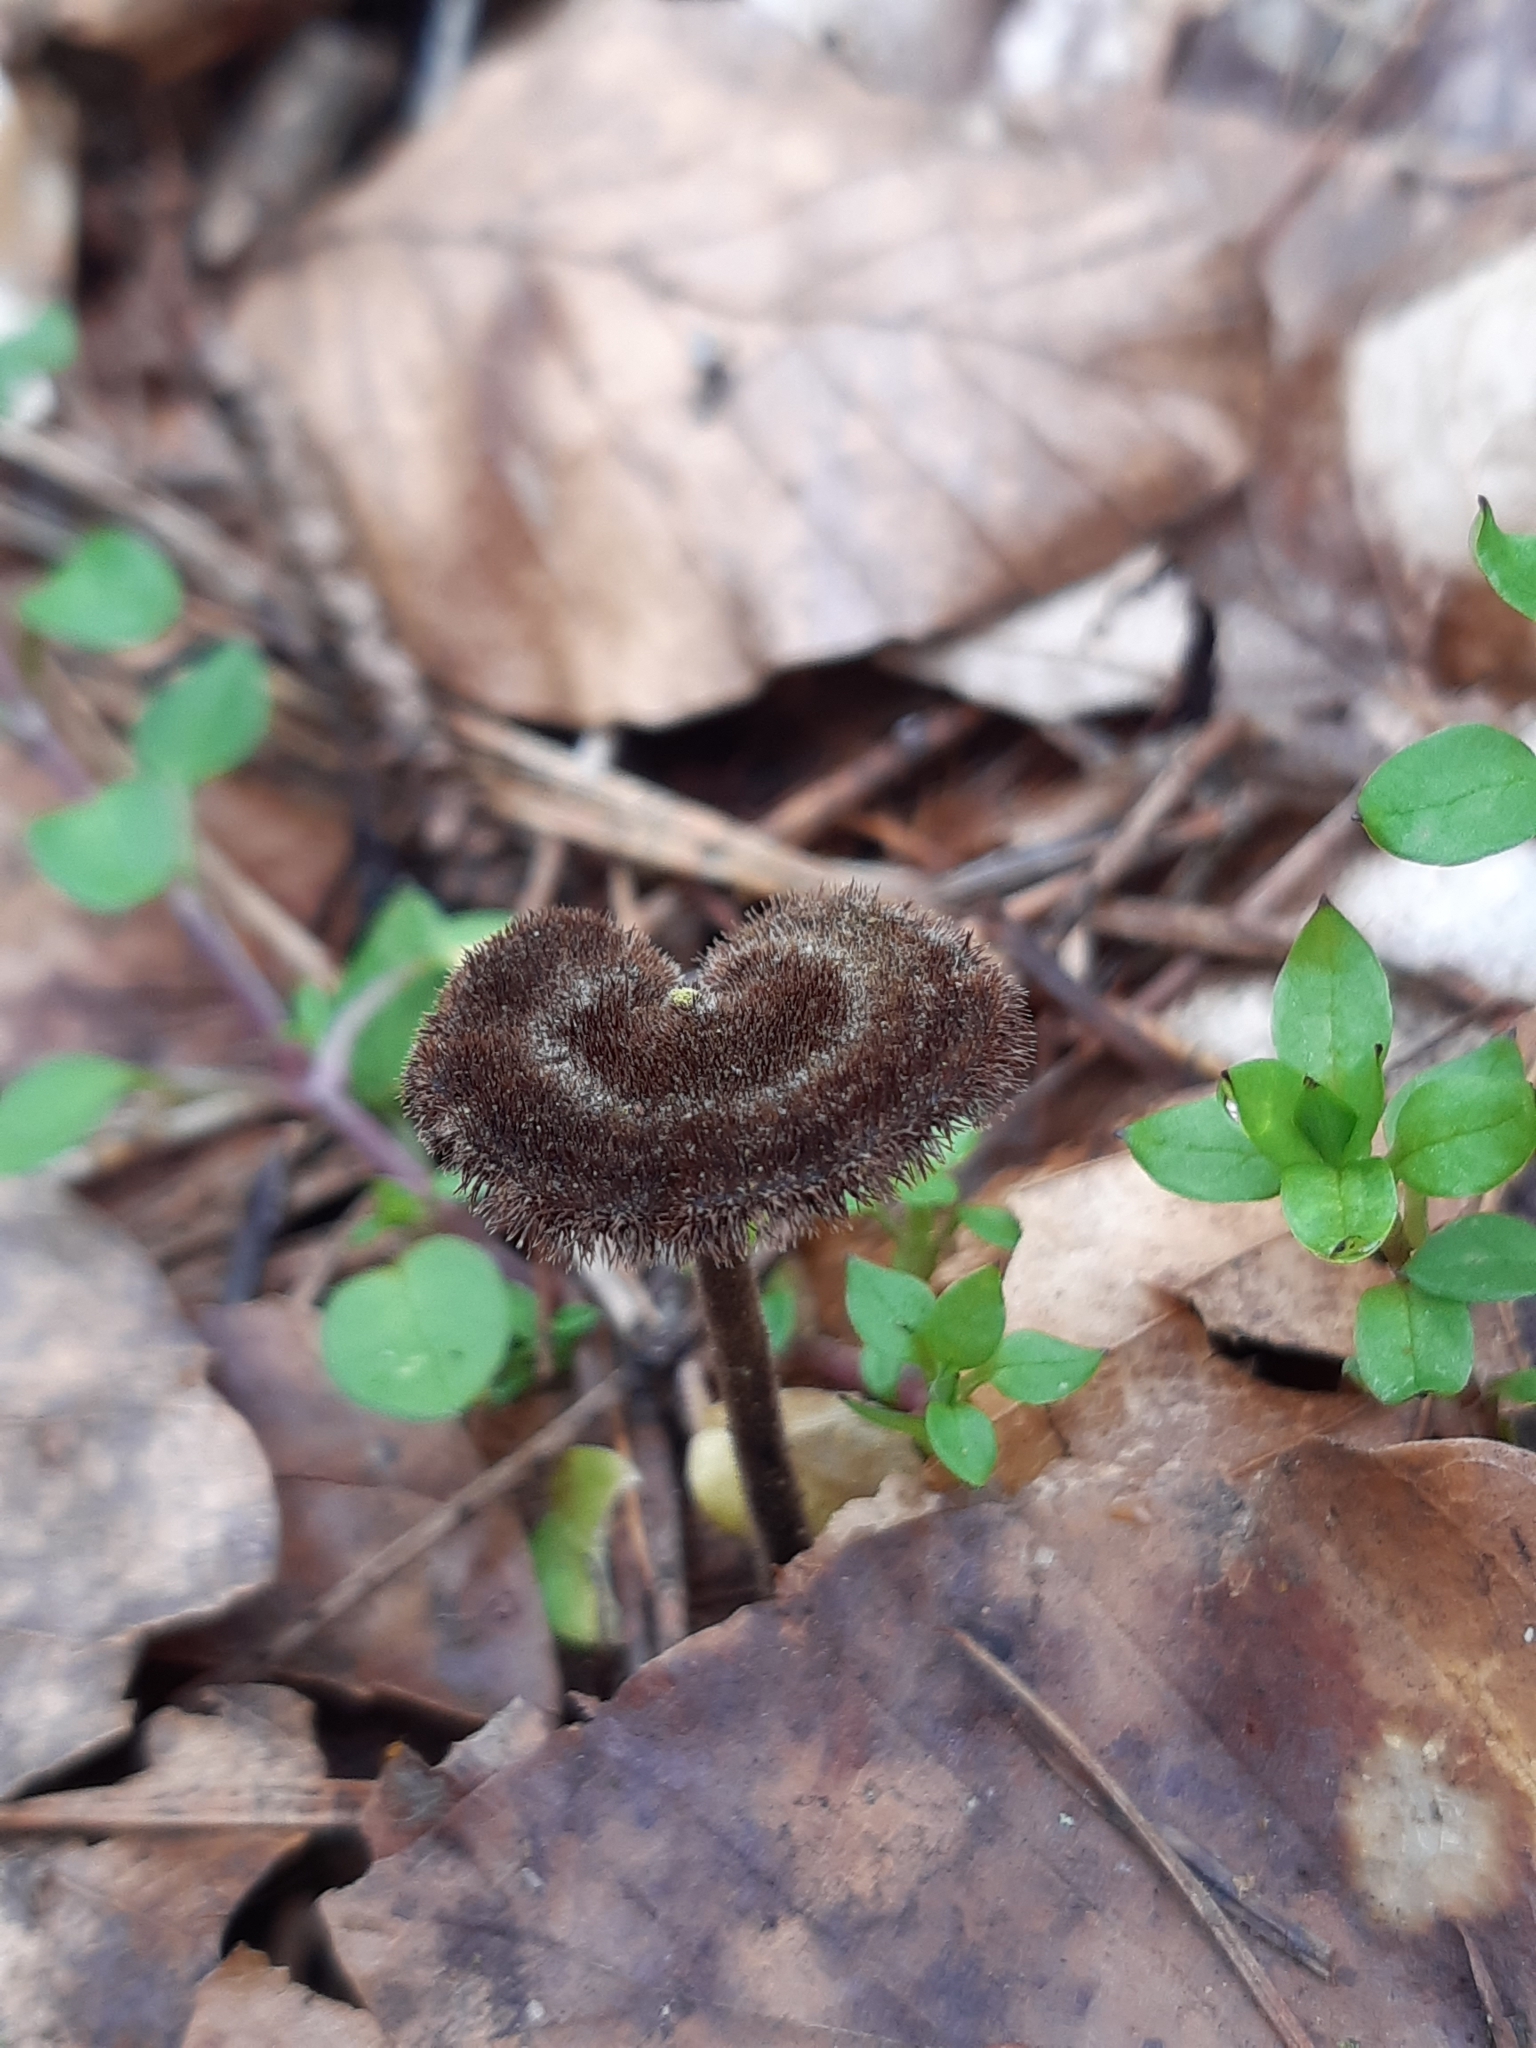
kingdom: Fungi
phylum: Basidiomycota
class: Agaricomycetes
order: Russulales
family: Auriscalpiaceae
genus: Auriscalpium
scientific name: Auriscalpium vulgare
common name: Earpick fungus
